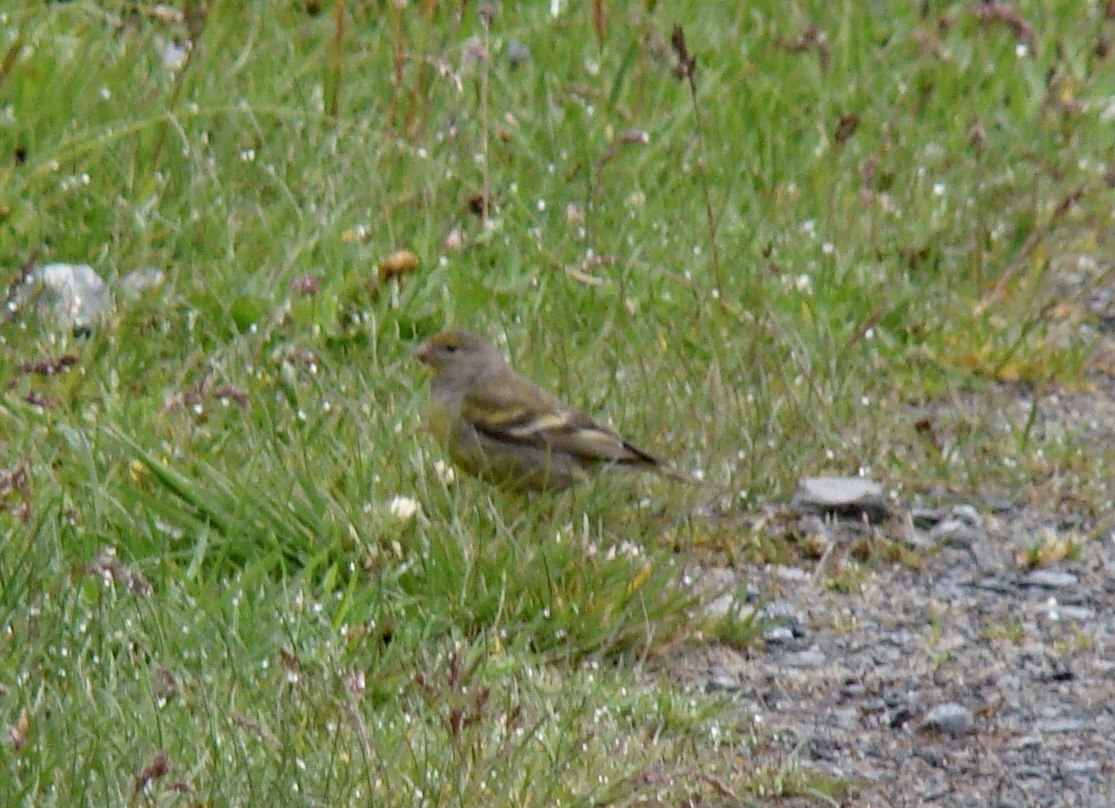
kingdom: Animalia
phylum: Chordata
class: Aves
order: Passeriformes
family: Fringillidae
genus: Carduelis
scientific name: Carduelis citrinella
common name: Citril finch
